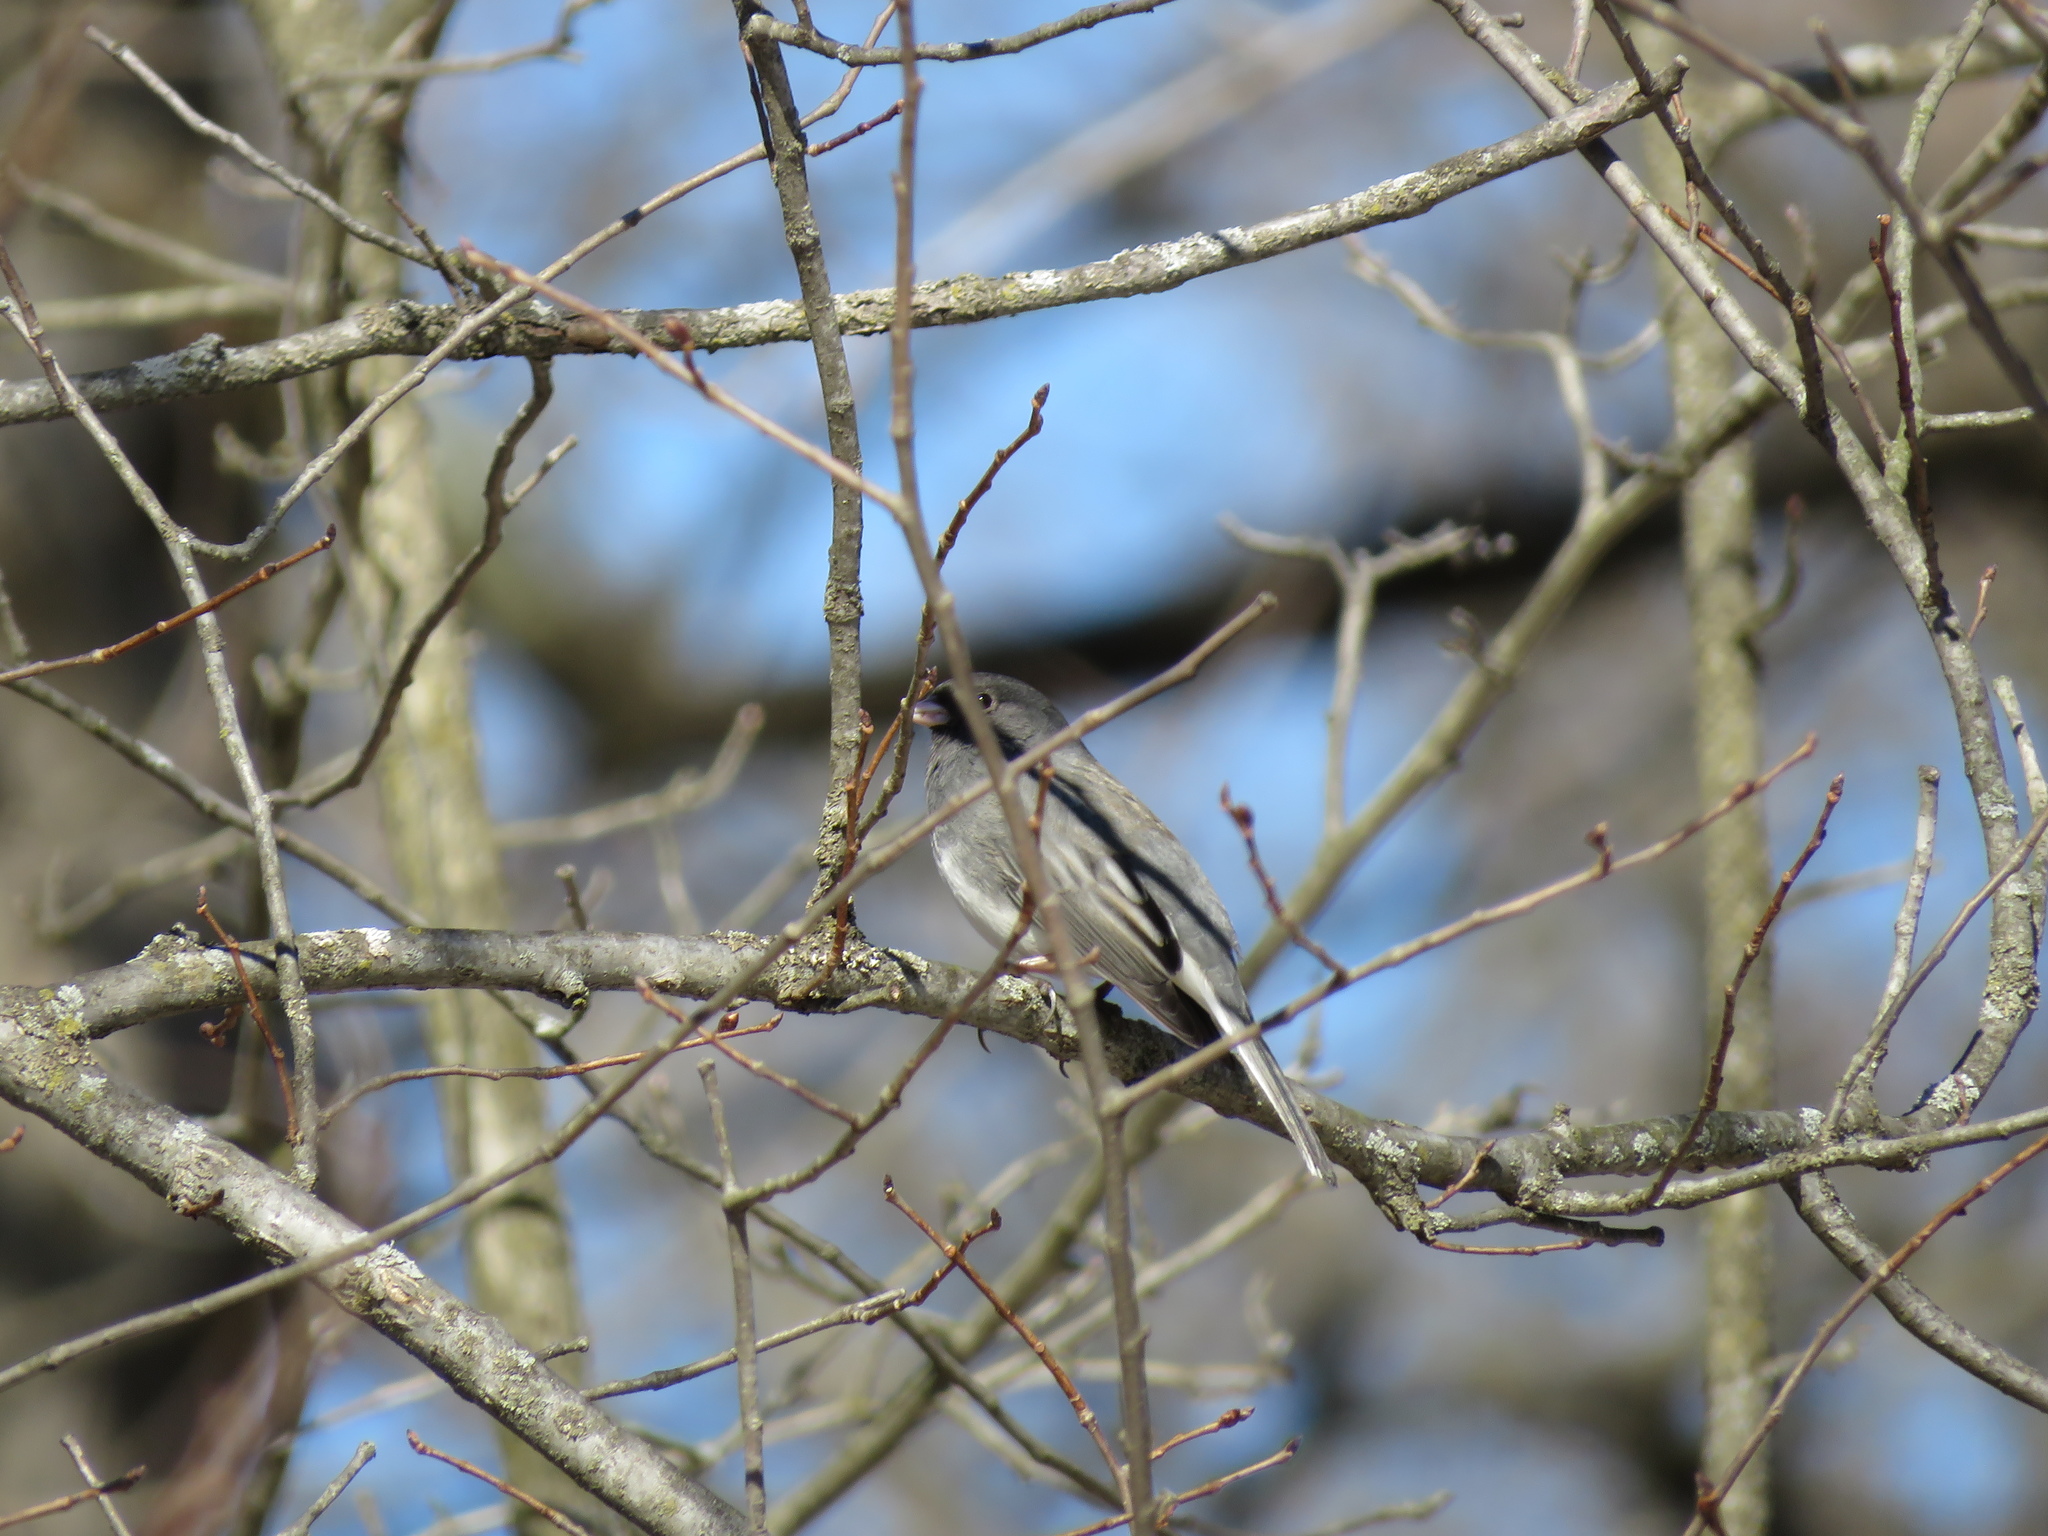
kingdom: Animalia
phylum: Chordata
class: Aves
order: Passeriformes
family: Passerellidae
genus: Junco
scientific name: Junco hyemalis
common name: Dark-eyed junco
